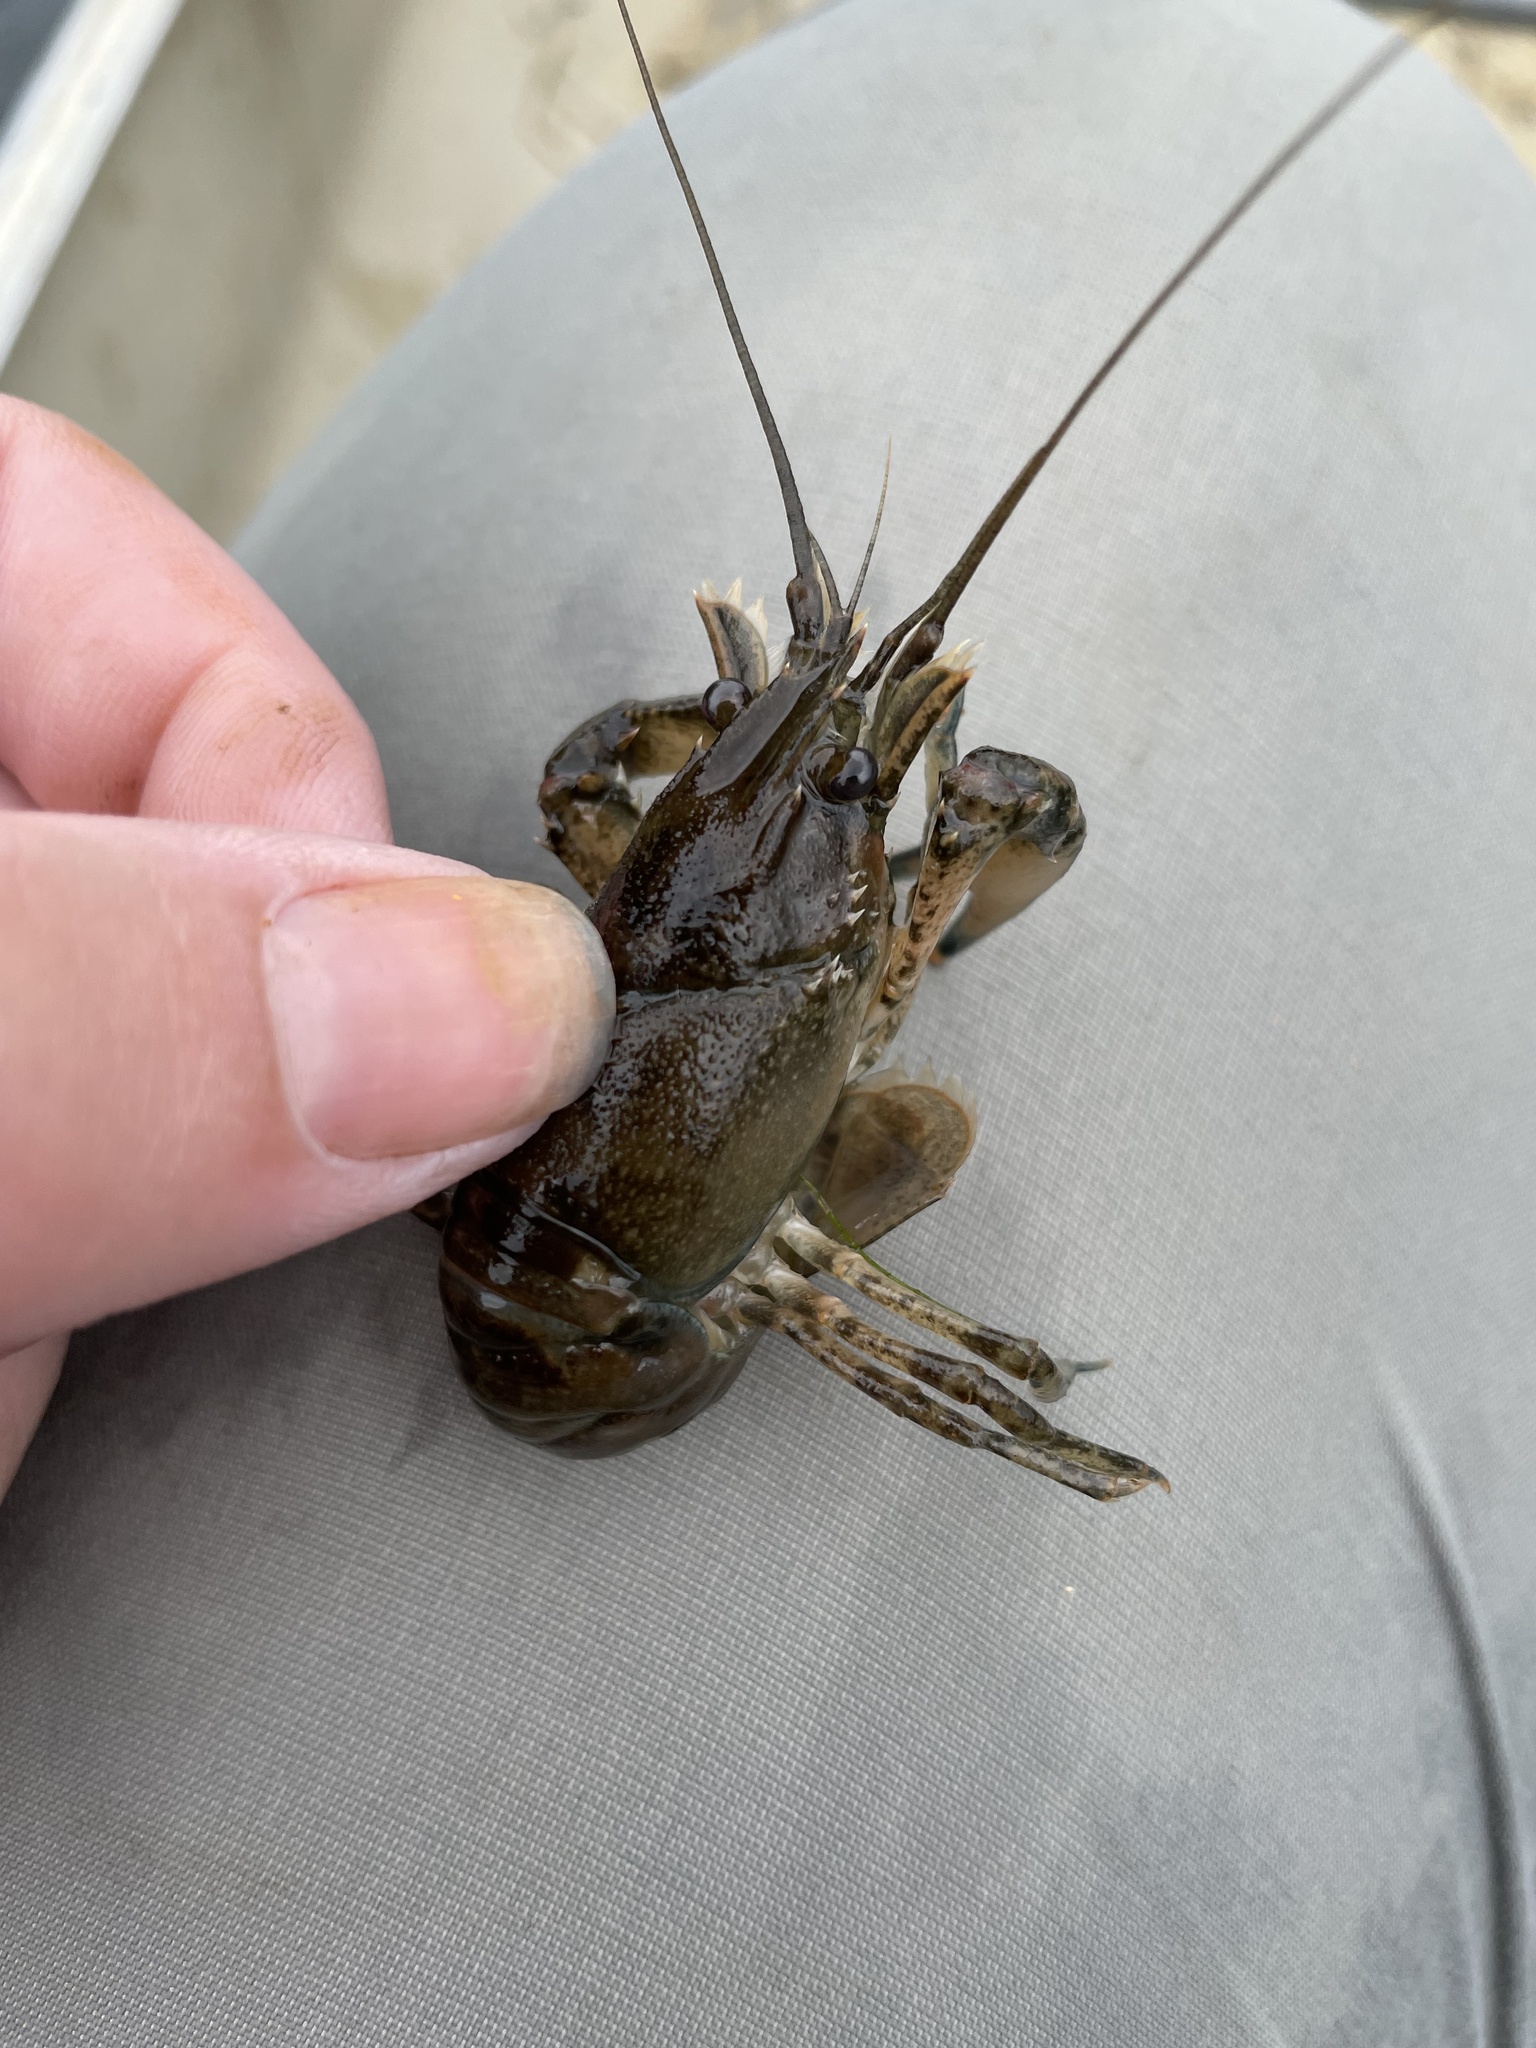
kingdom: Animalia
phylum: Arthropoda
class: Malacostraca
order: Decapoda
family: Cambaridae
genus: Faxonius
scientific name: Faxonius limosus
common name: American crayfish
